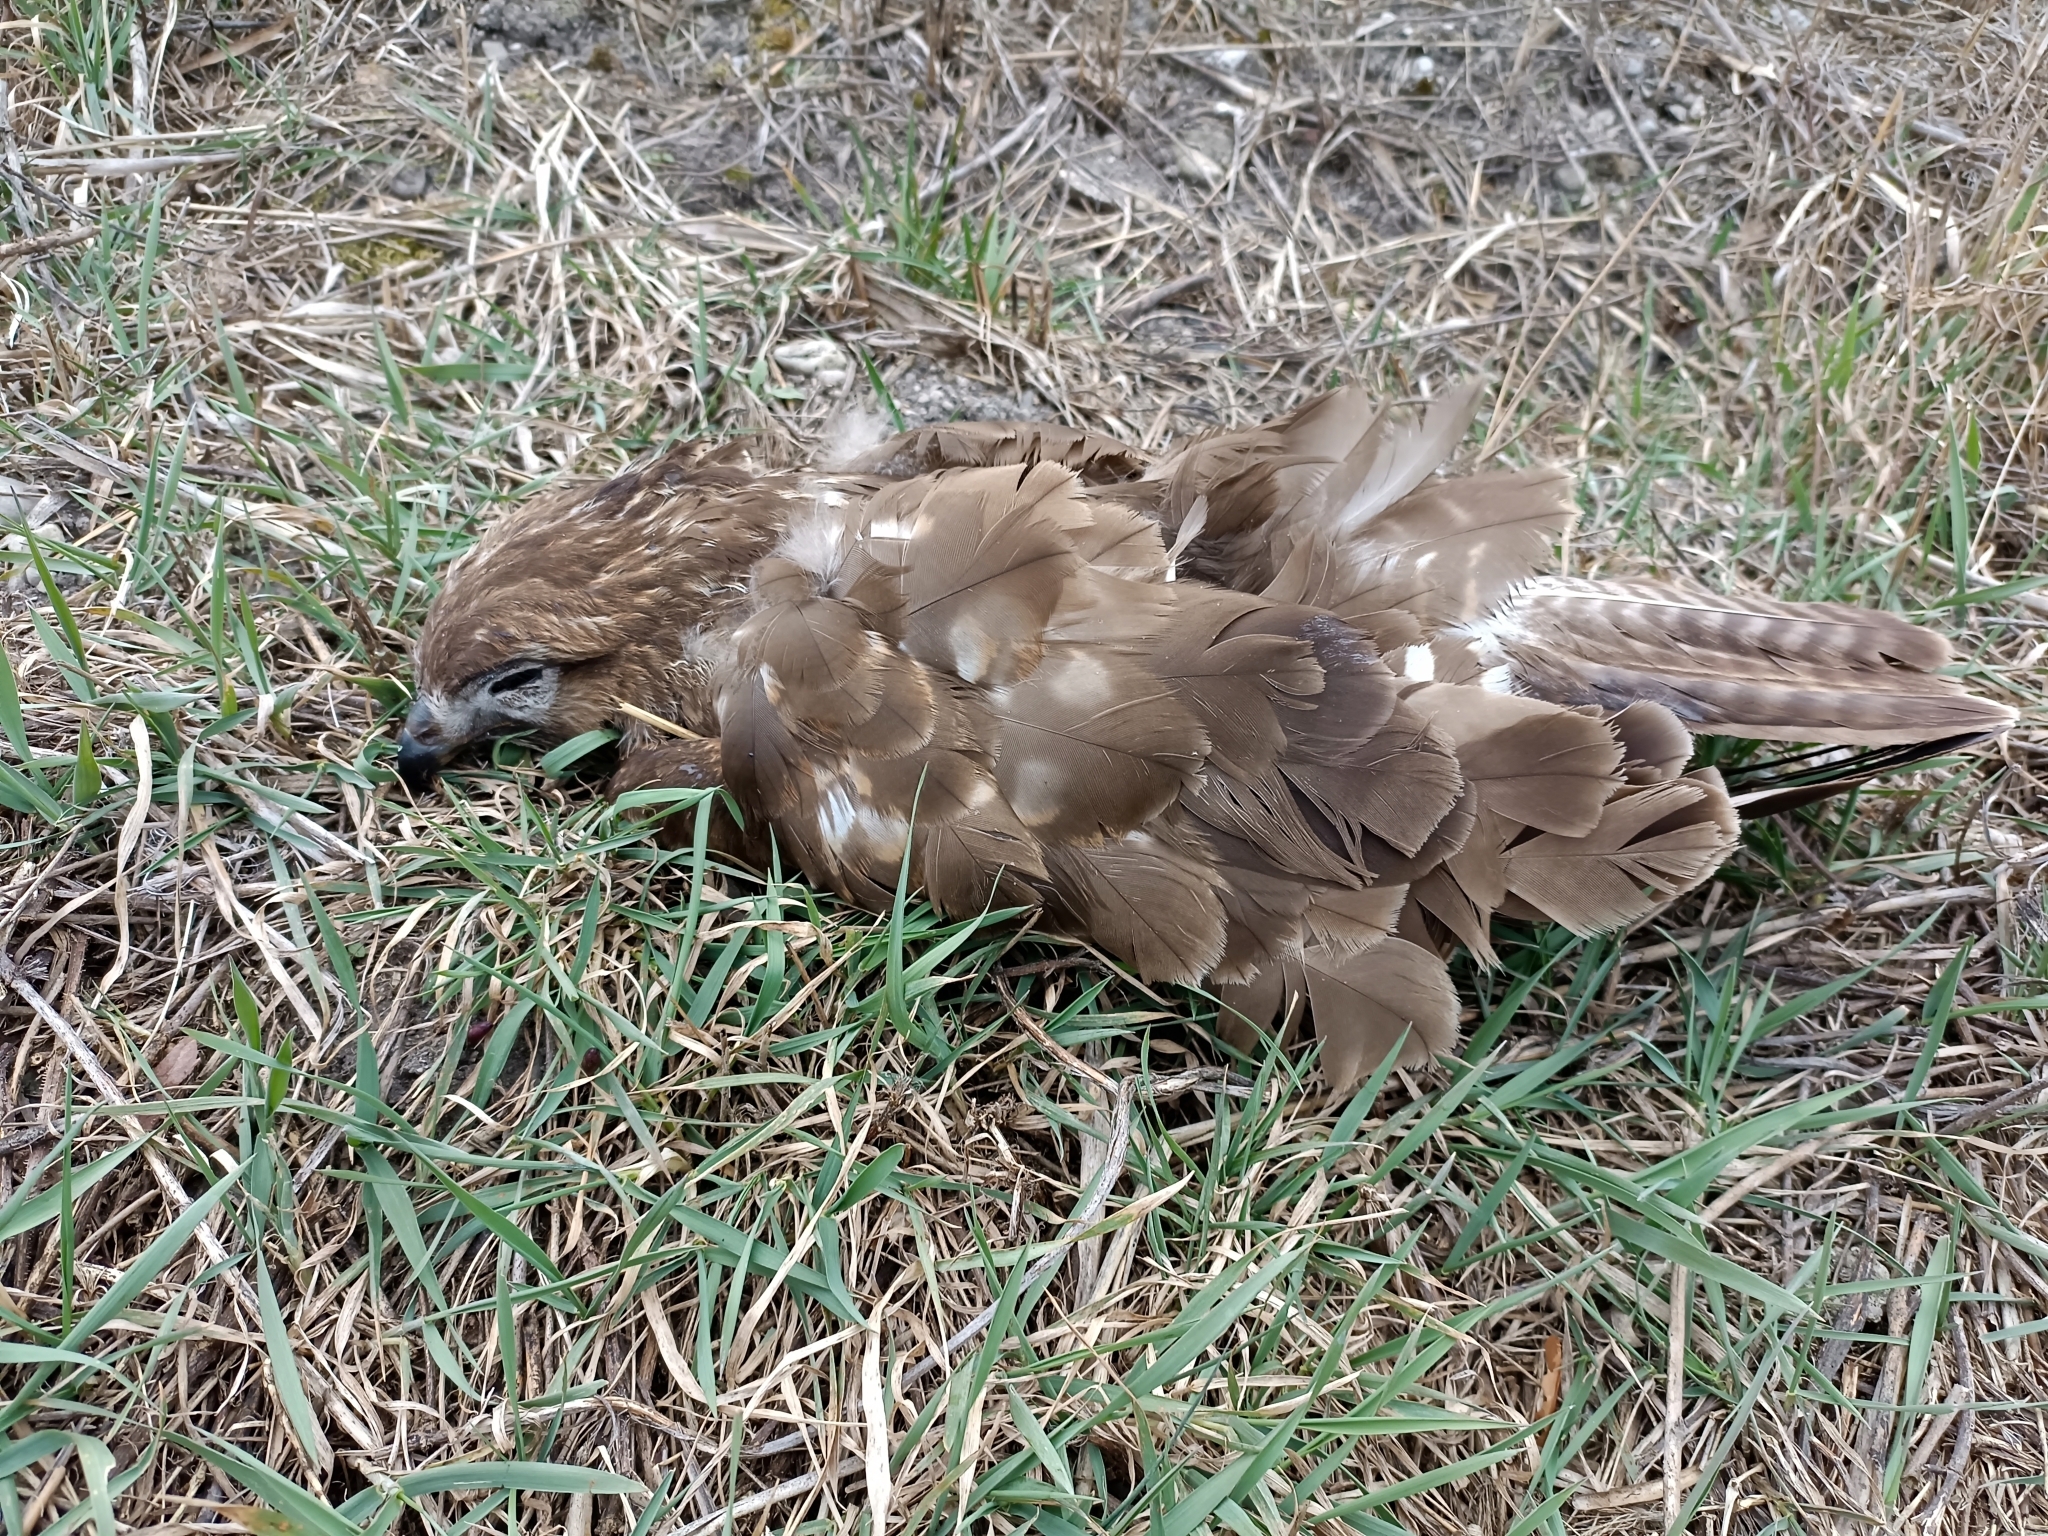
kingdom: Animalia
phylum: Chordata
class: Aves
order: Accipitriformes
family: Accipitridae
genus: Buteo
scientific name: Buteo buteo
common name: Common buzzard
